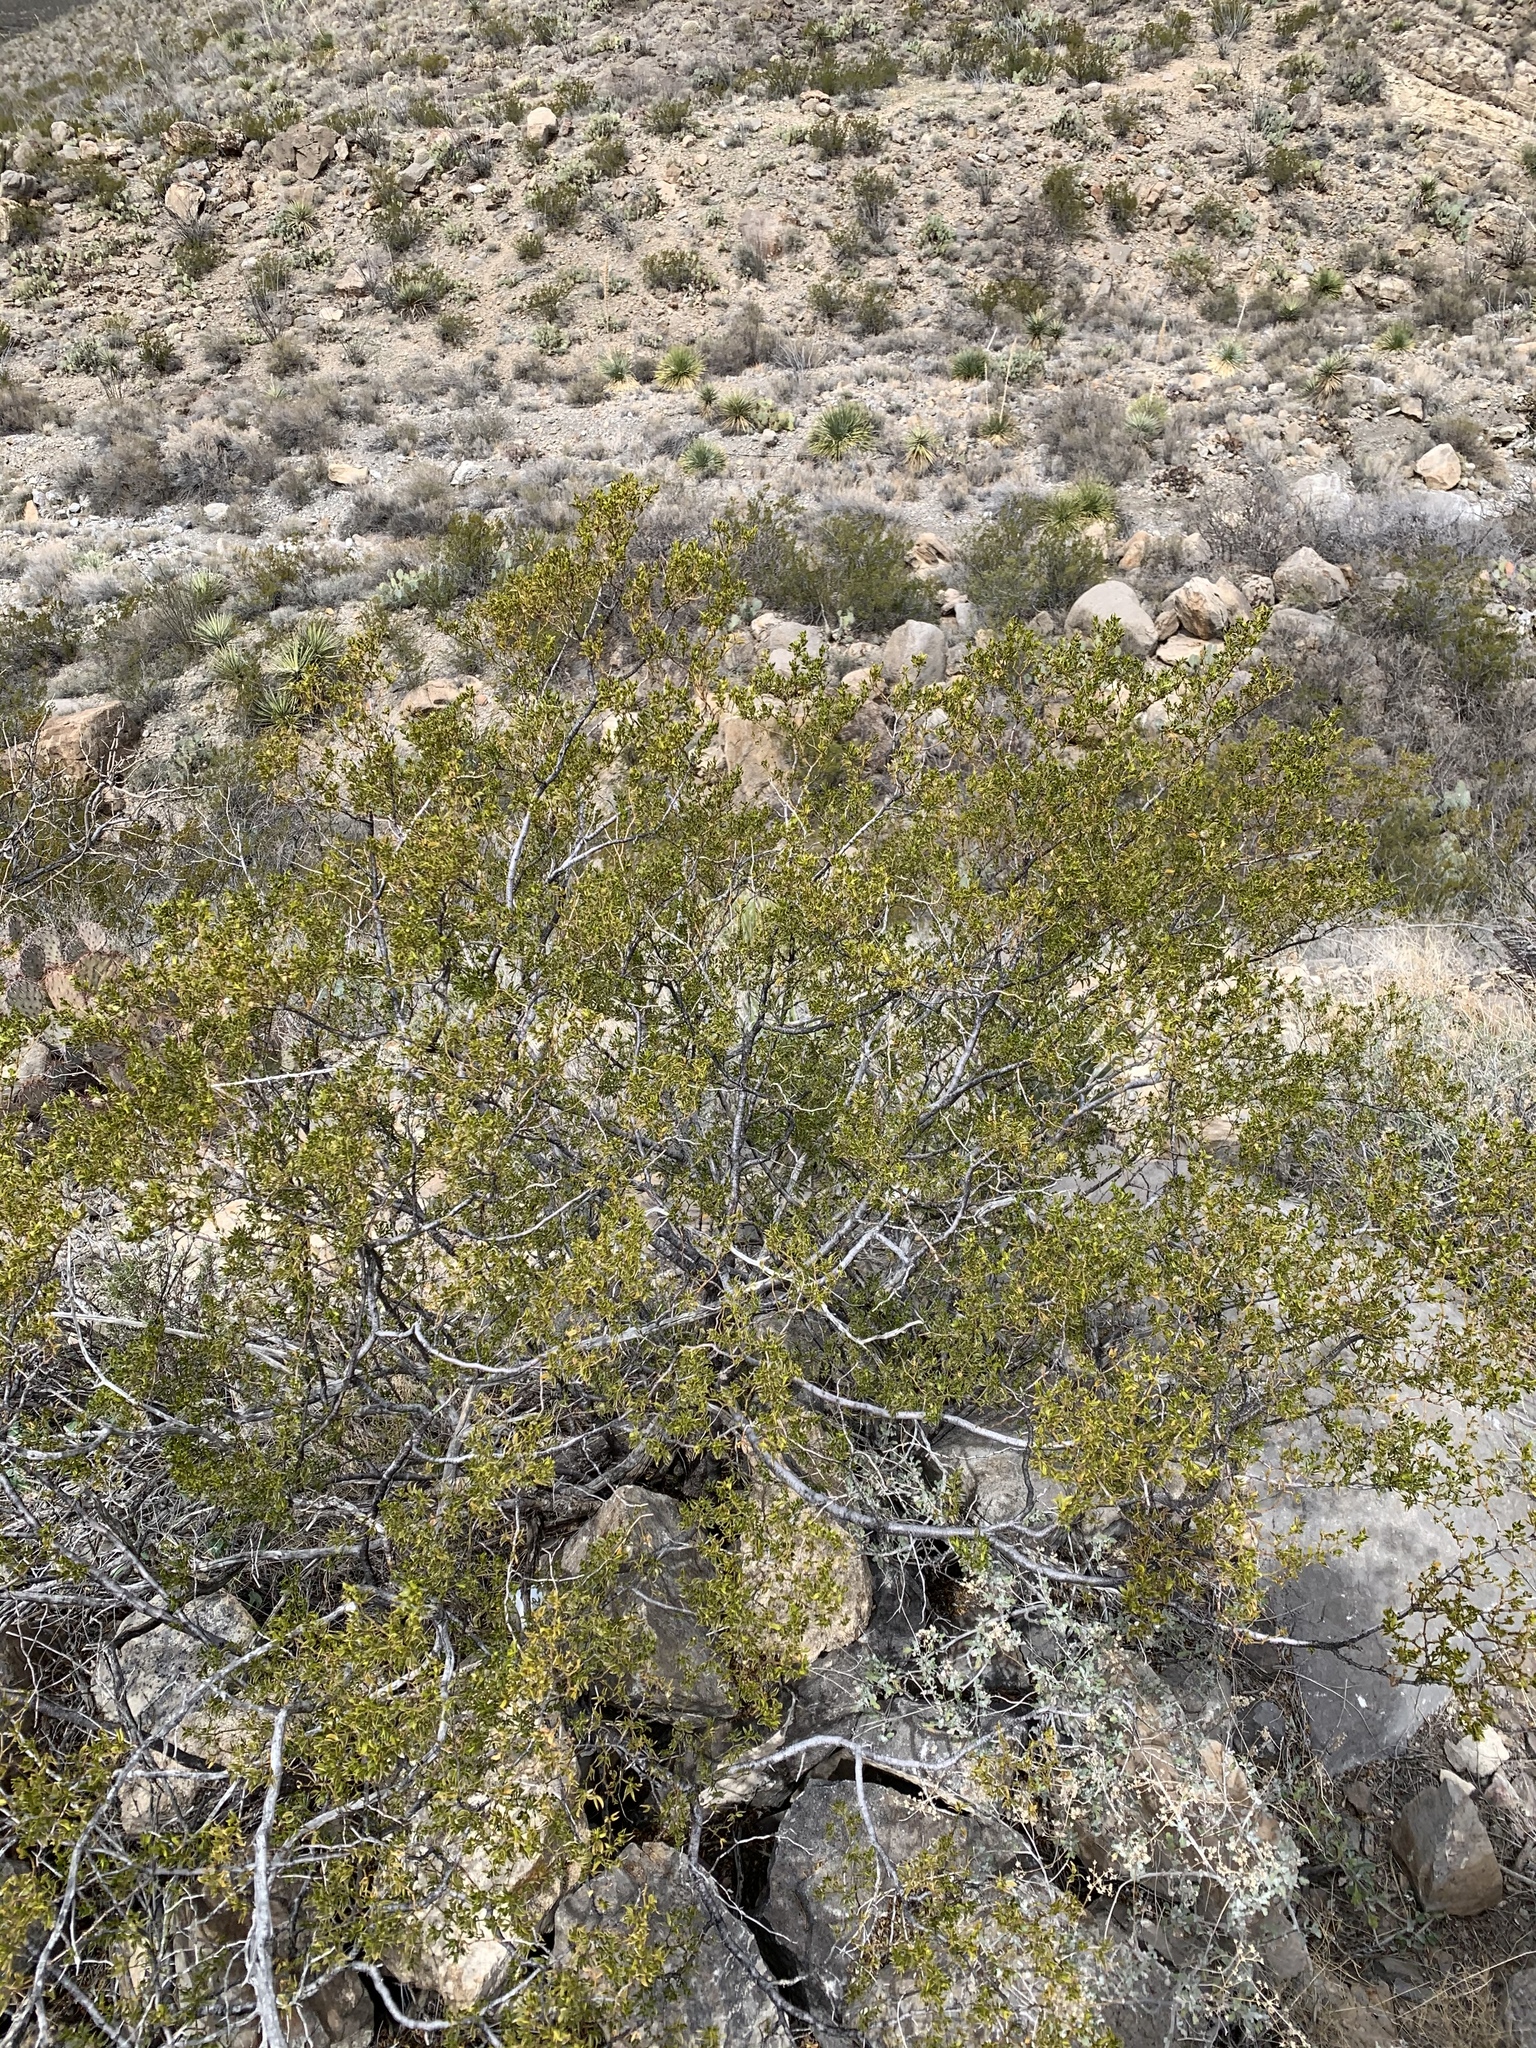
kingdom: Plantae
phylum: Tracheophyta
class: Magnoliopsida
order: Zygophyllales
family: Zygophyllaceae
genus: Larrea
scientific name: Larrea tridentata
